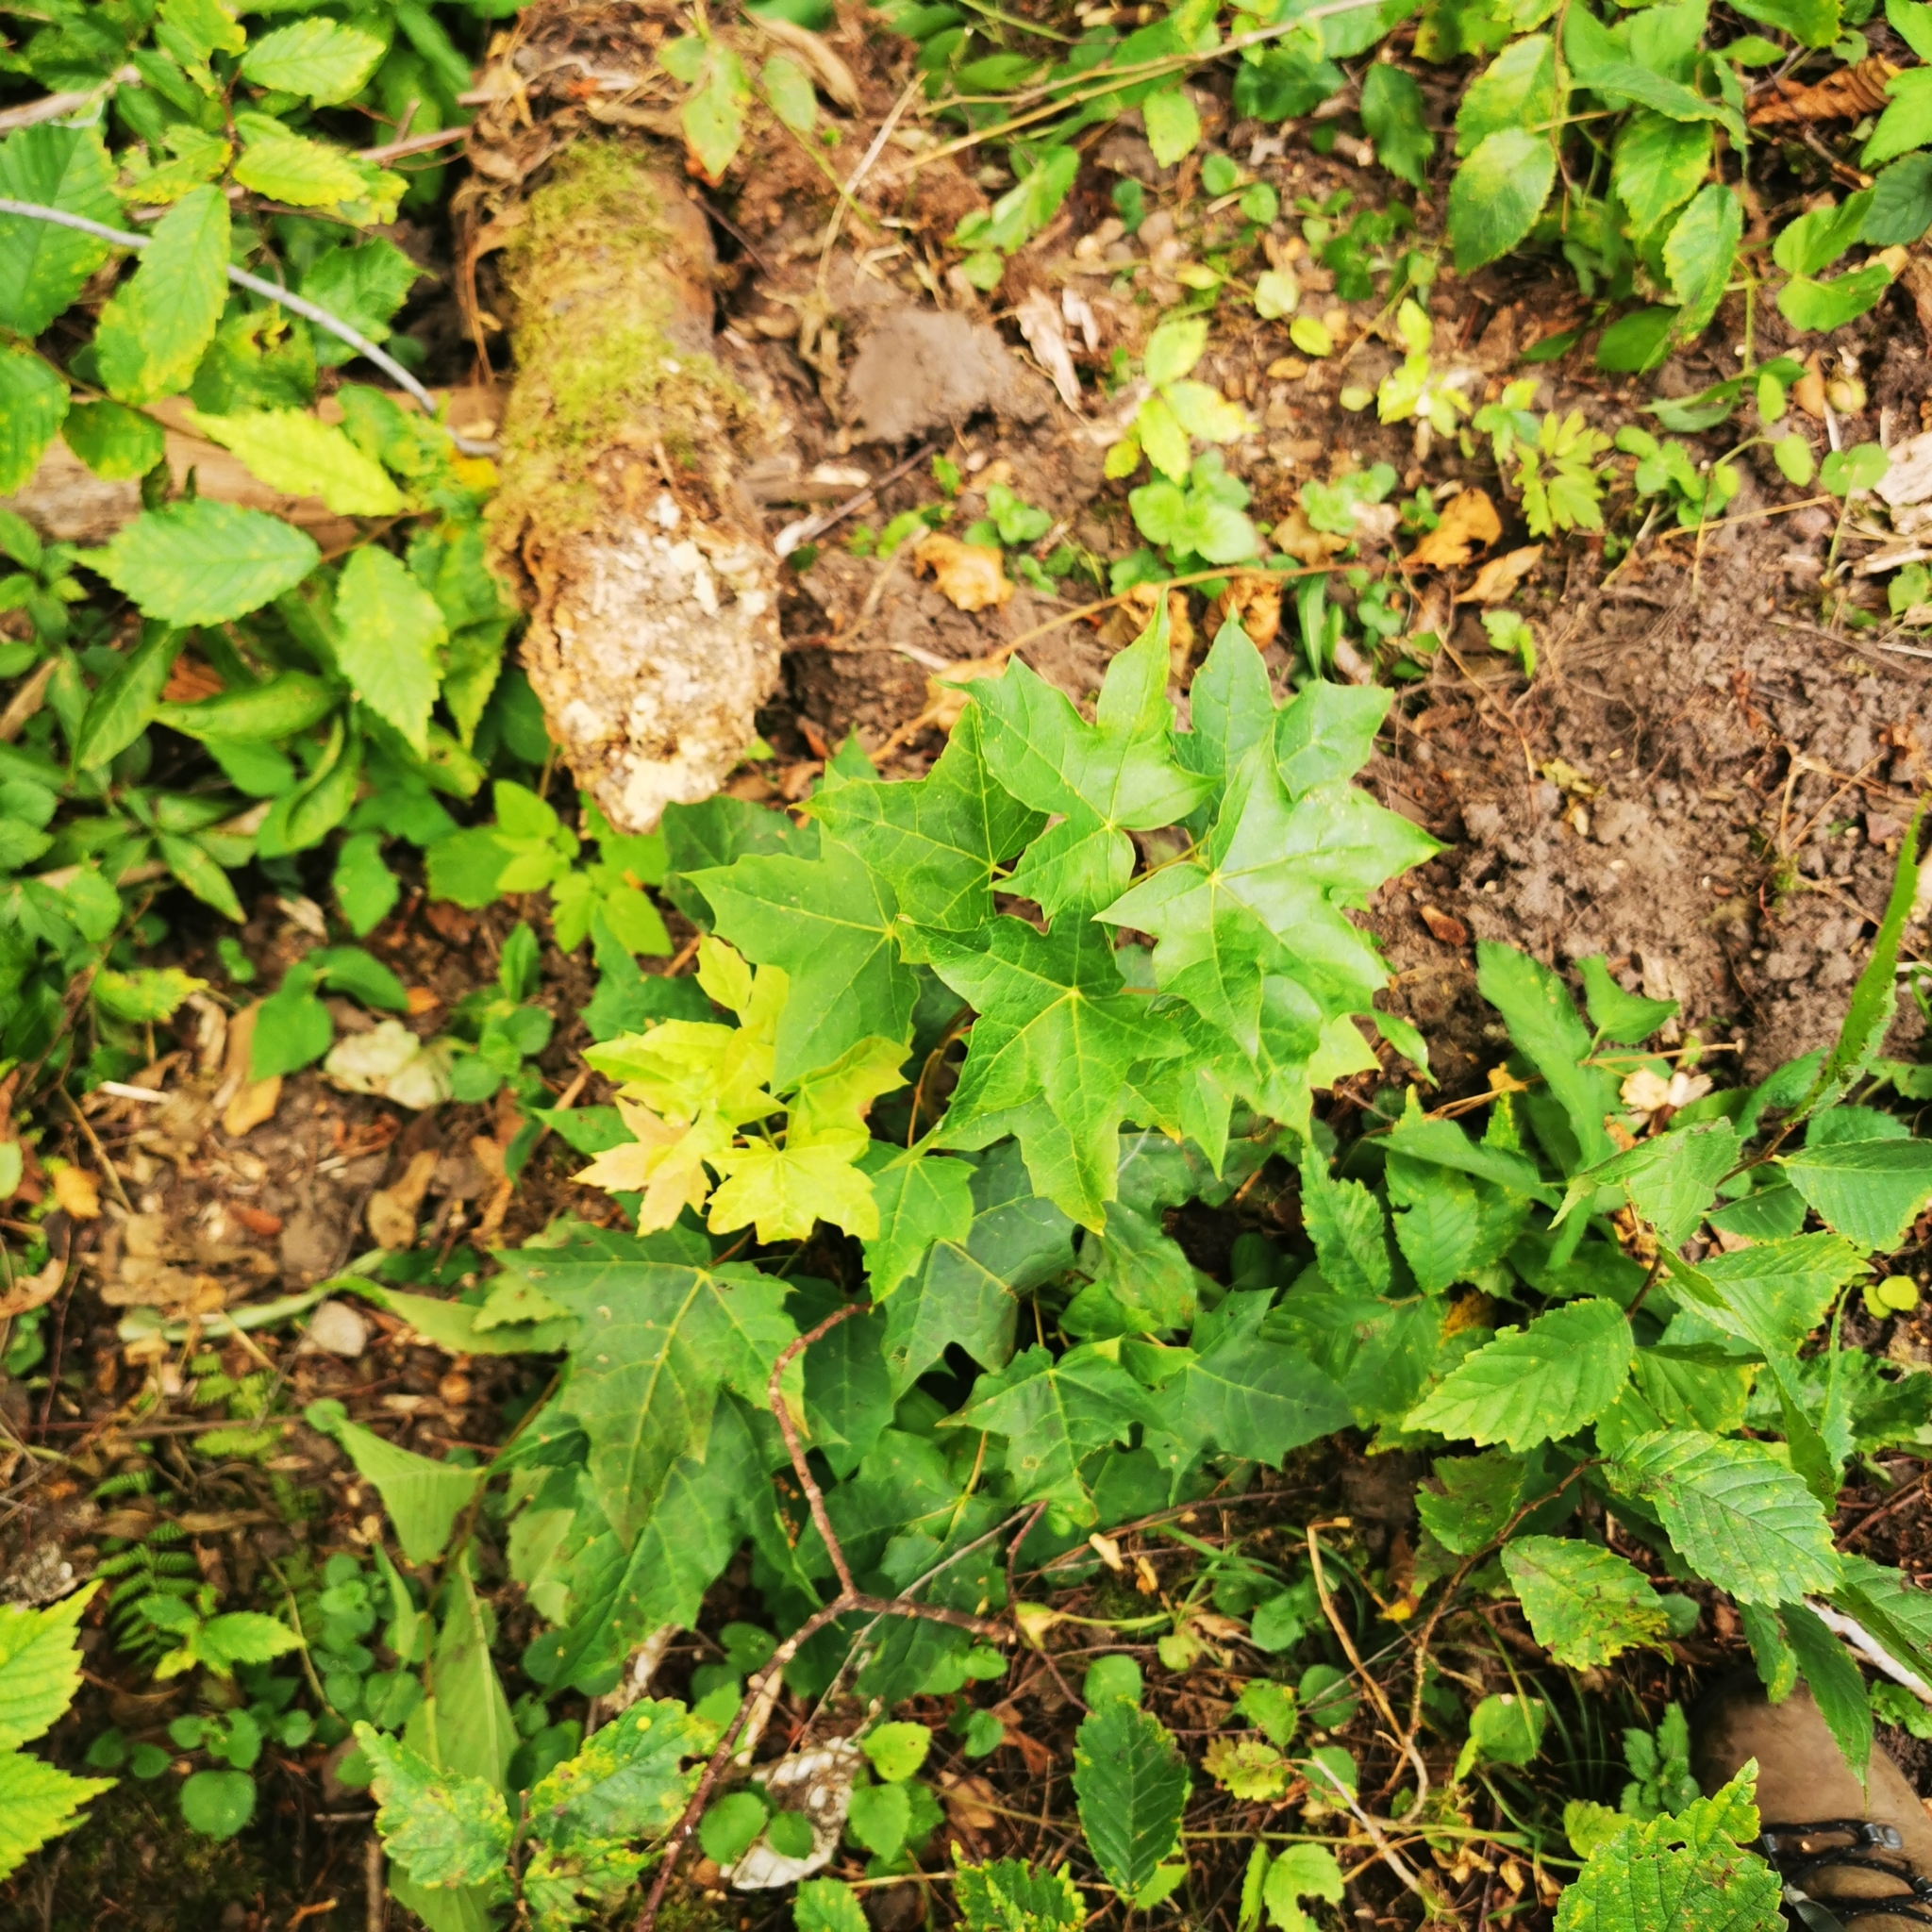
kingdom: Plantae
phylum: Tracheophyta
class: Magnoliopsida
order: Sapindales
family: Sapindaceae
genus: Acer
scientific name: Acer platanoides
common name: Norway maple
